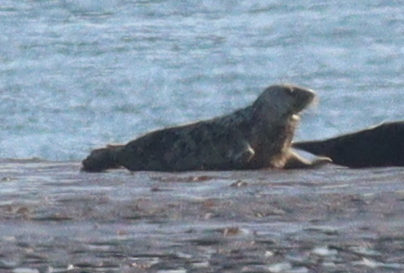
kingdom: Animalia
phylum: Chordata
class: Mammalia
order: Carnivora
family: Phocidae
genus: Halichoerus
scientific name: Halichoerus grypus
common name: Grey seal
